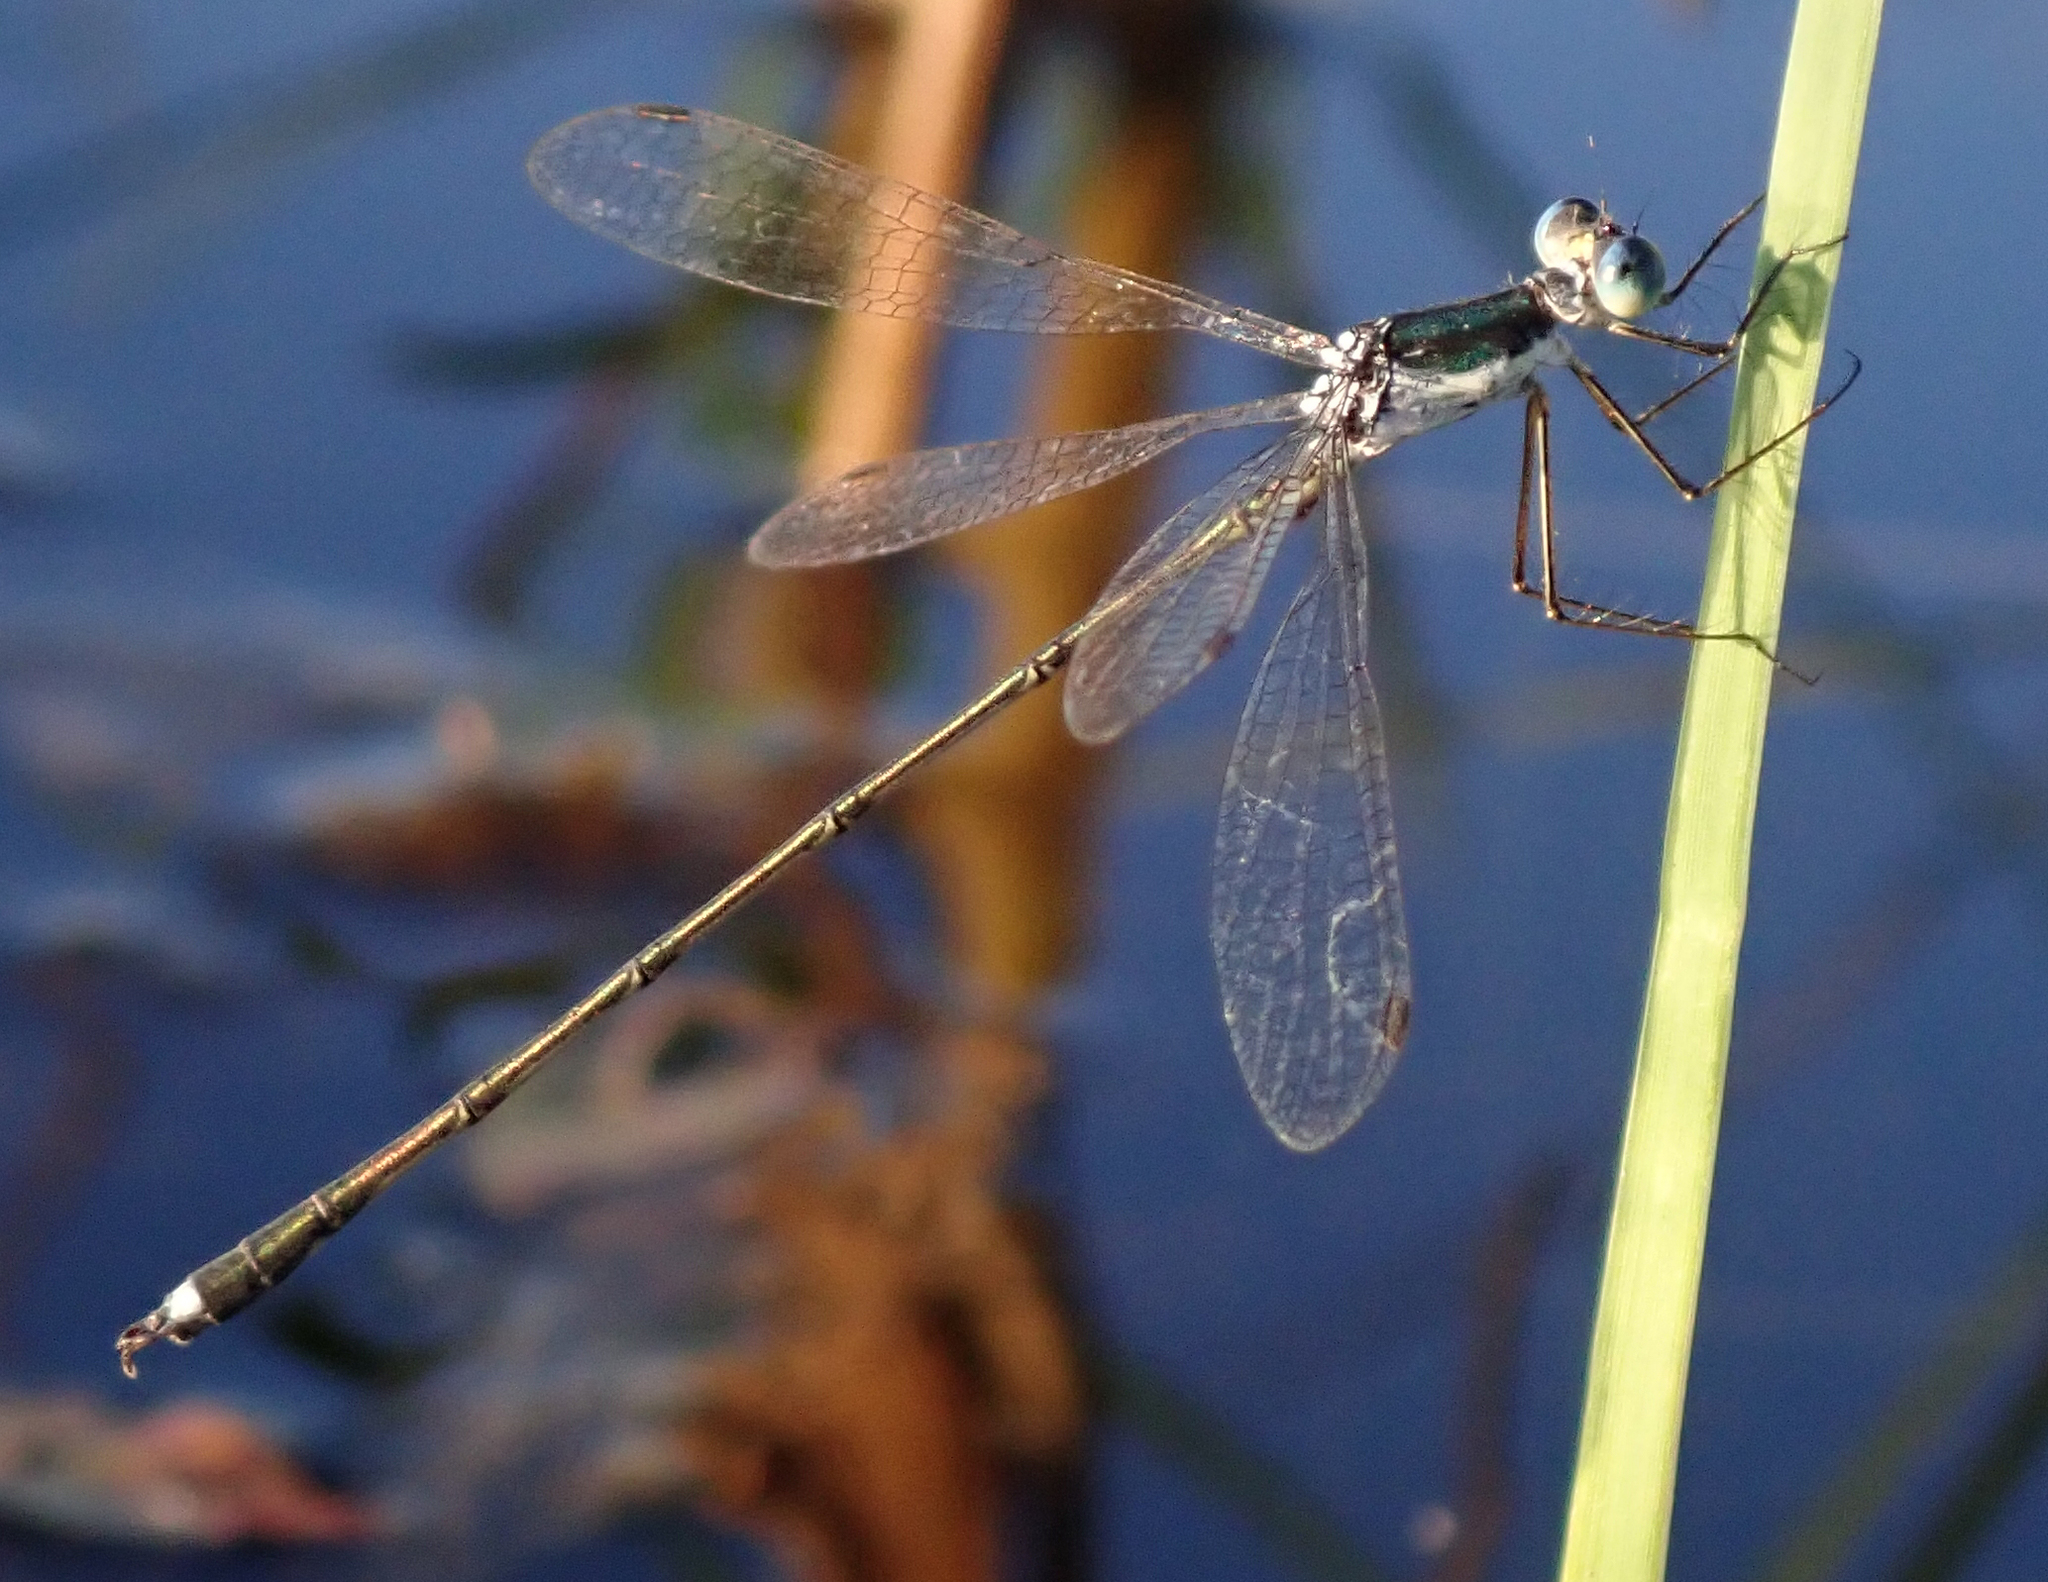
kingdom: Animalia
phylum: Arthropoda
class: Insecta
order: Odonata
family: Lestidae
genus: Lestes
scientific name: Lestes pinheyi
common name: Pinhey's spreadwing
